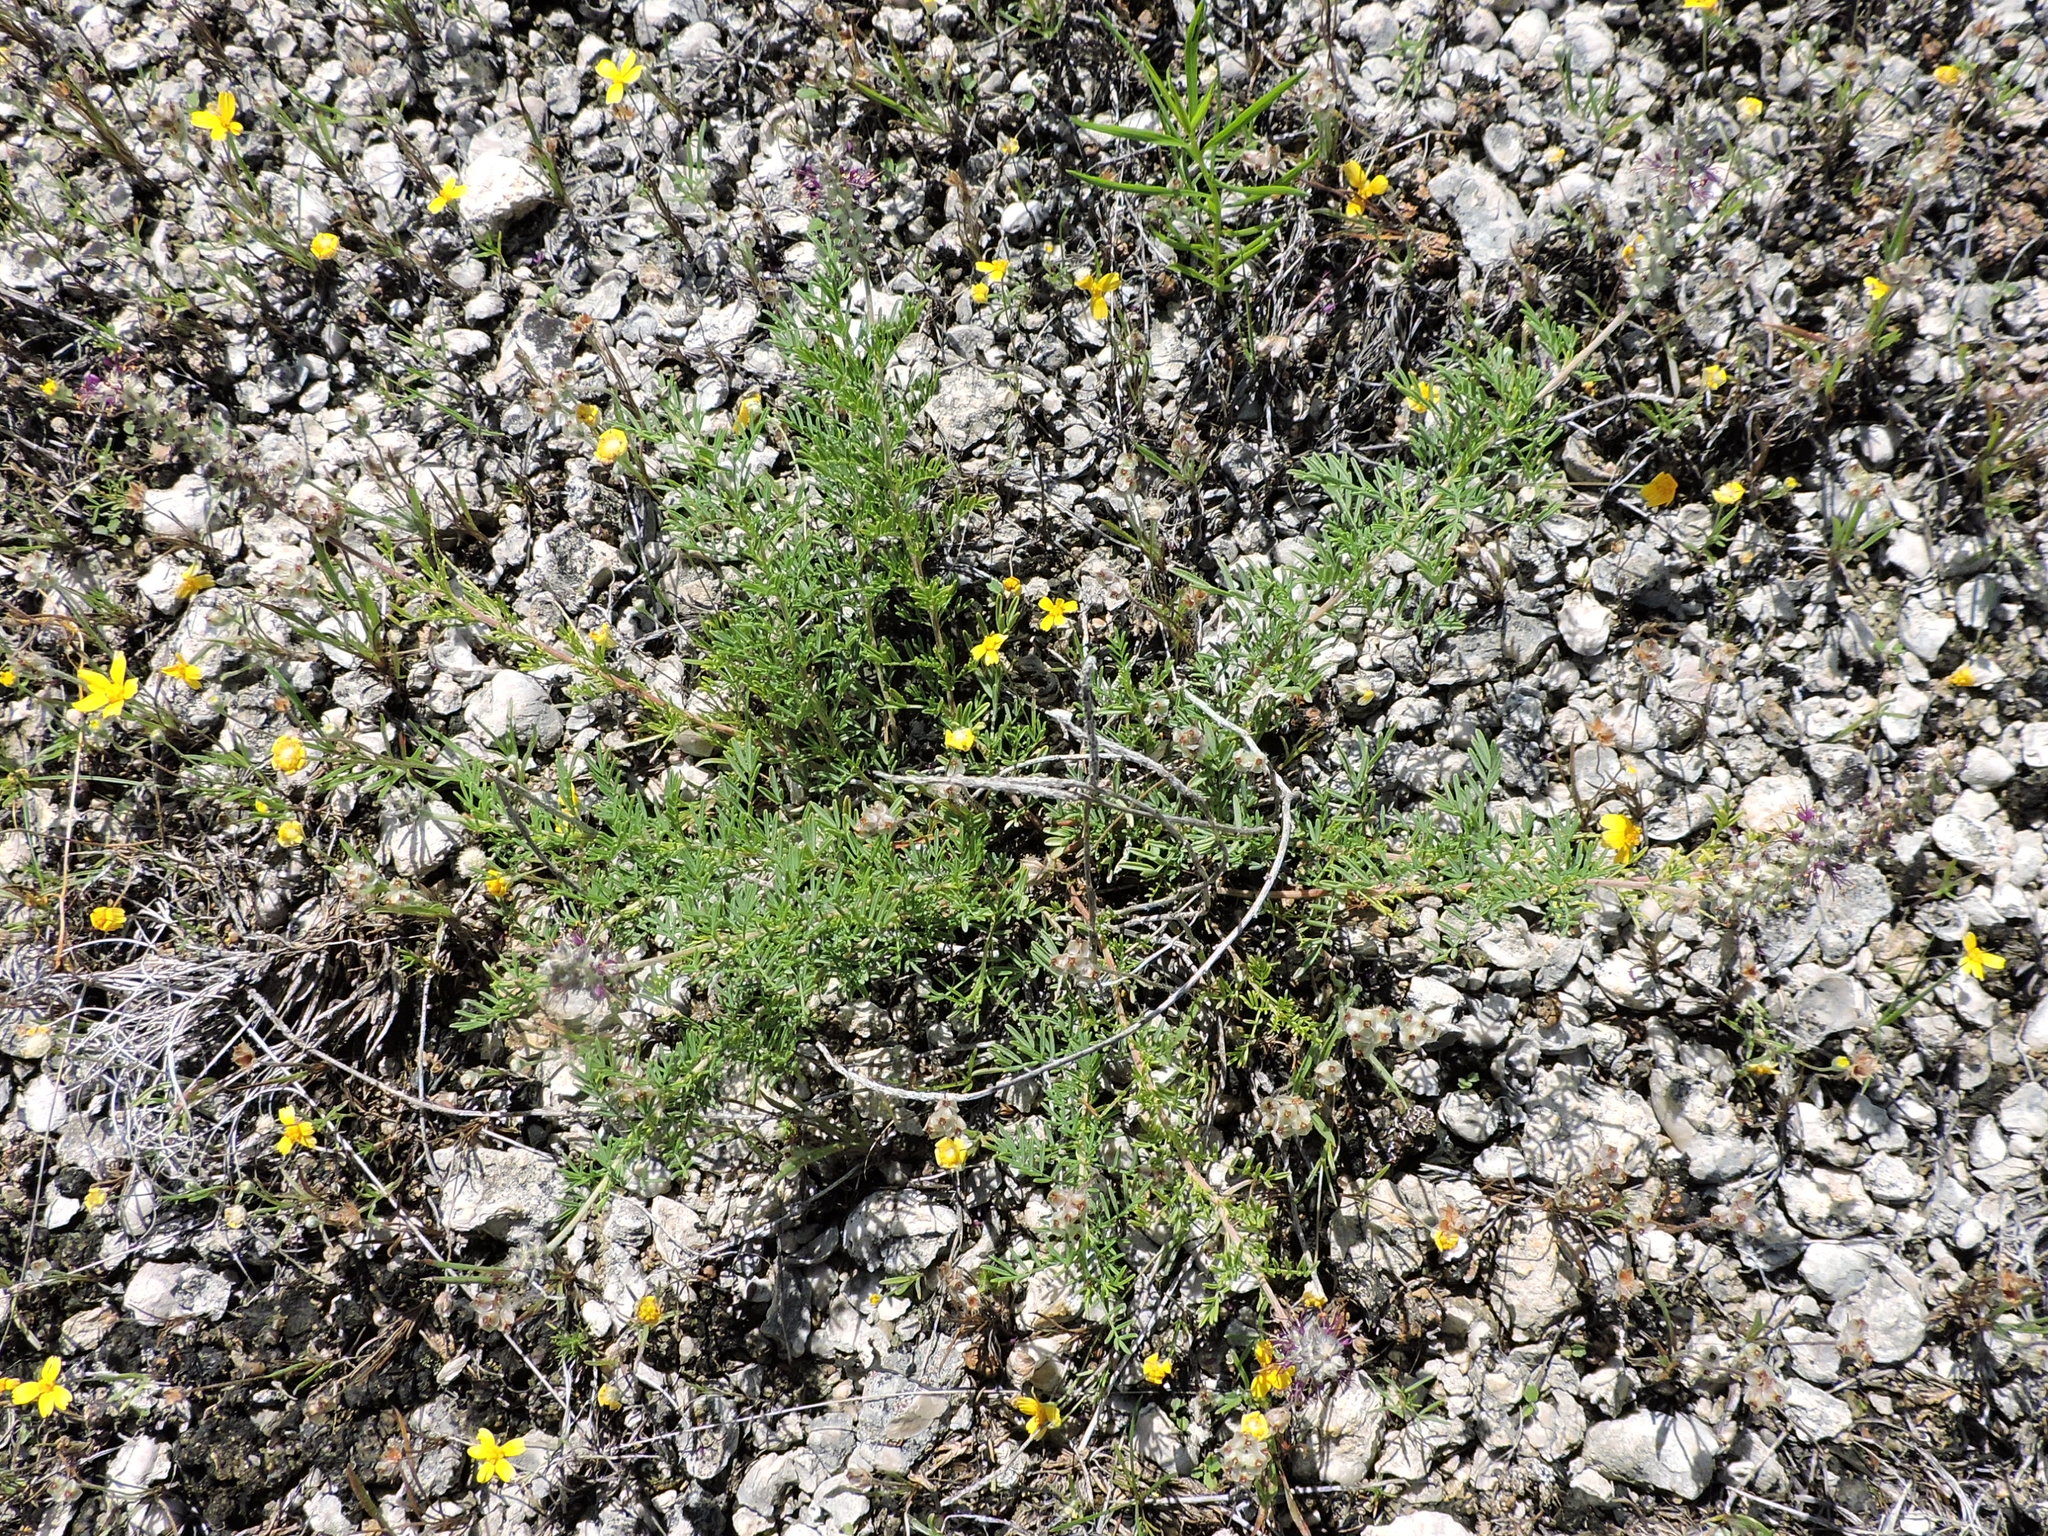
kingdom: Plantae
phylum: Tracheophyta
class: Magnoliopsida
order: Fabales
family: Fabaceae
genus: Dalea
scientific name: Dalea reverchonii
